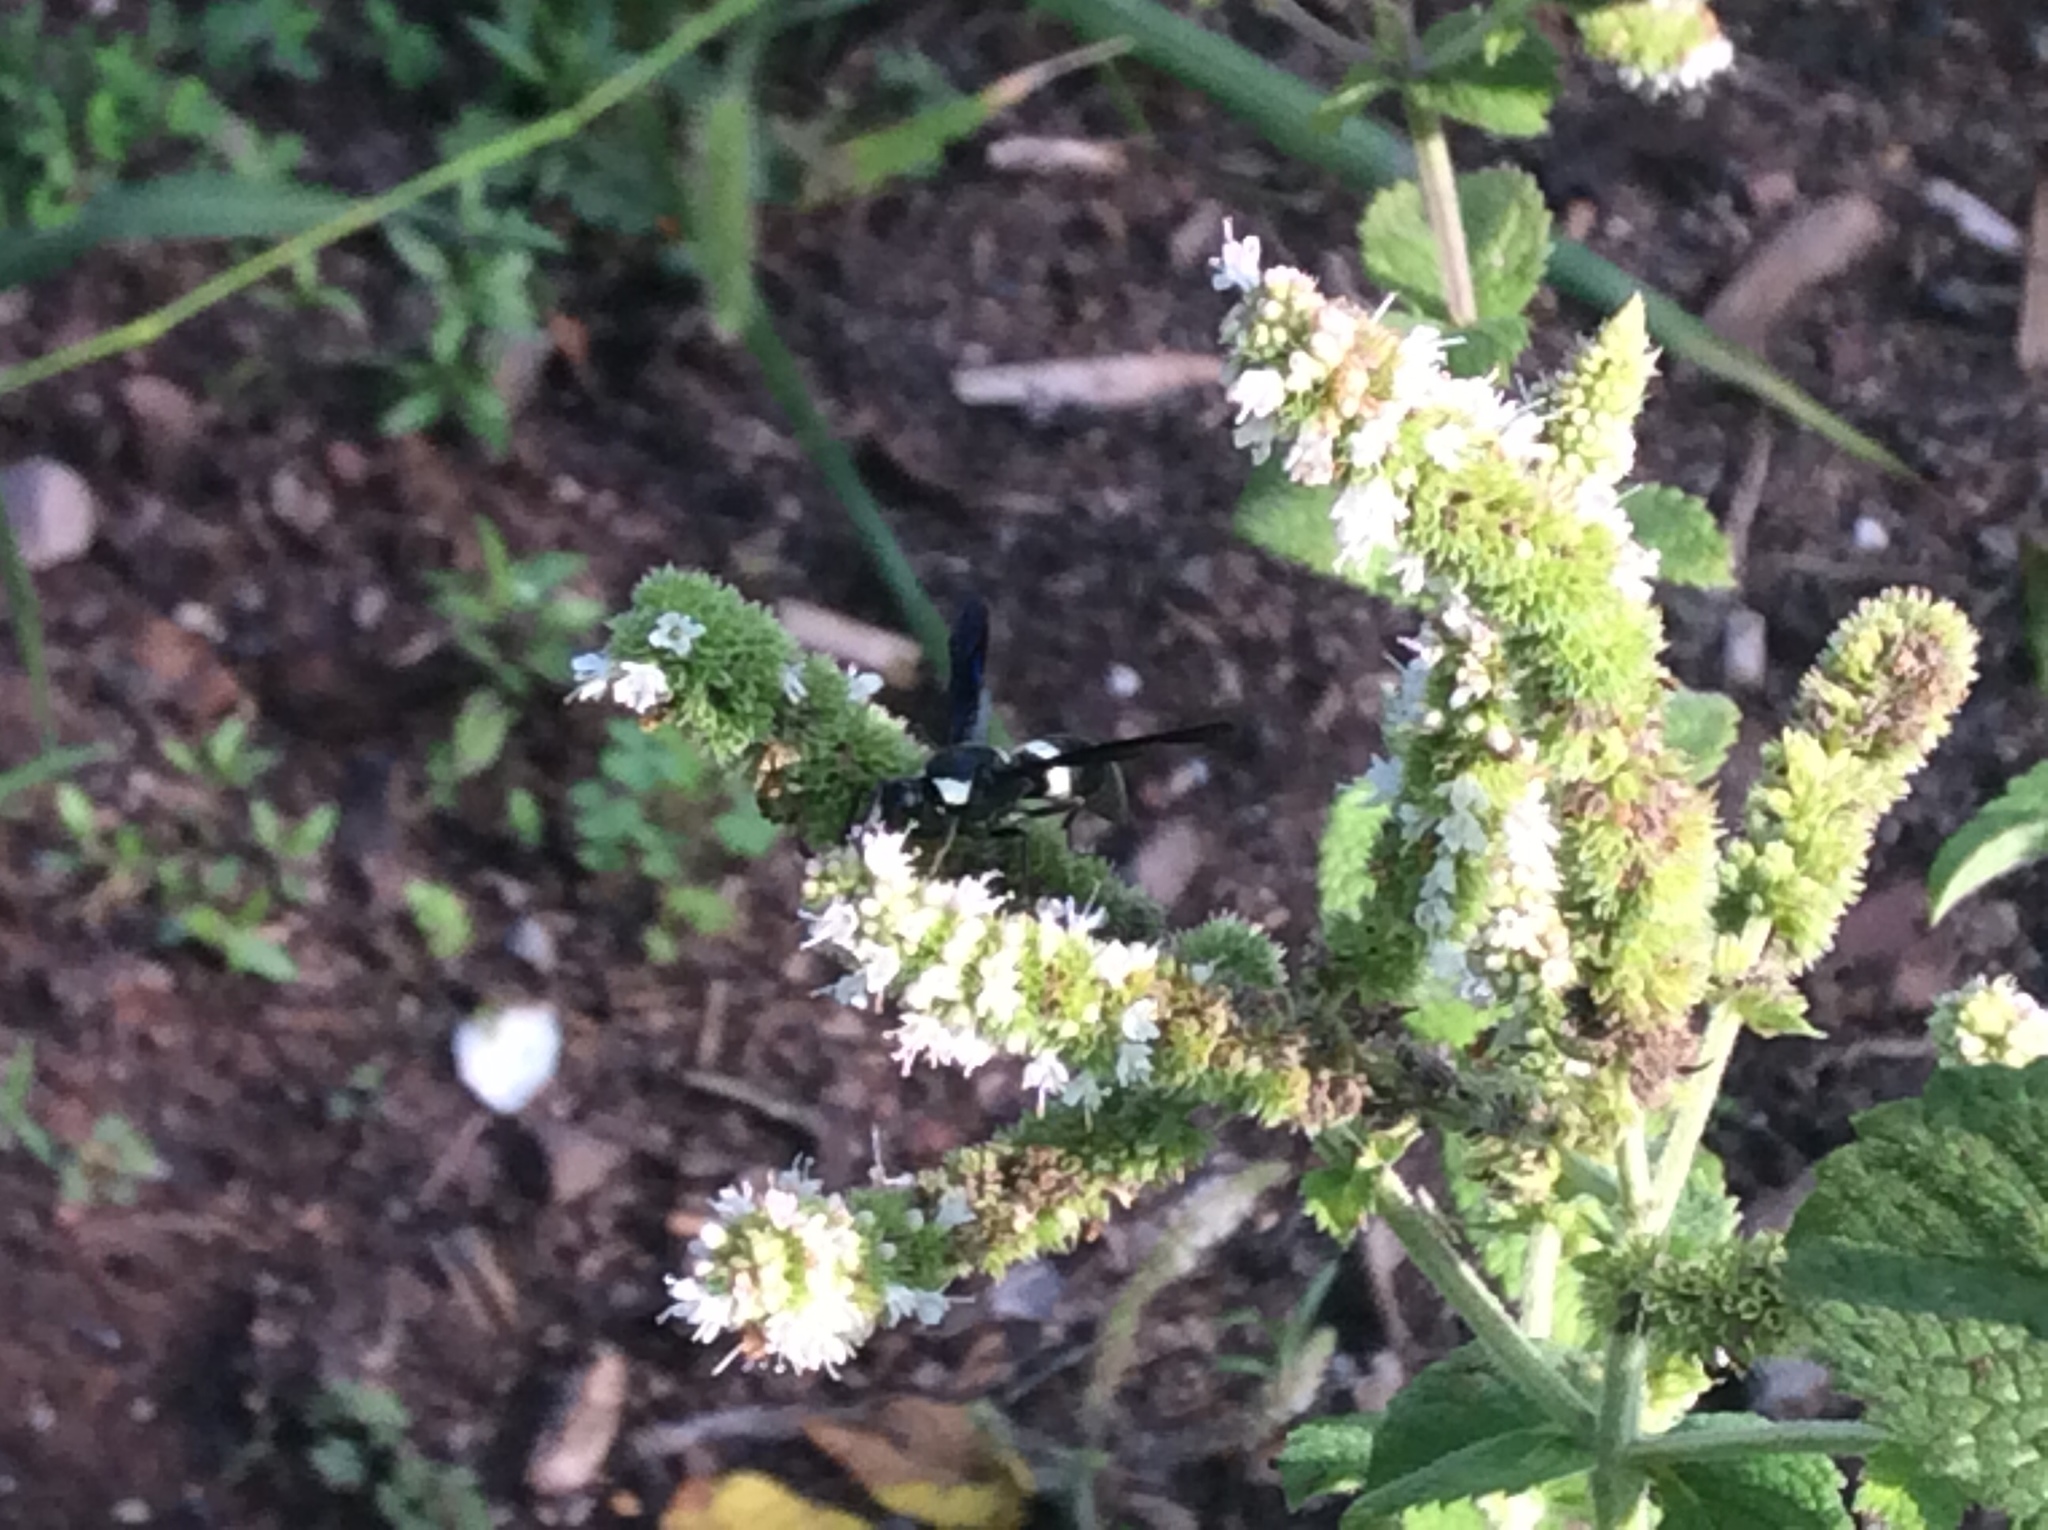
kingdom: Animalia
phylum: Arthropoda
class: Insecta
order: Hymenoptera
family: Eumenidae
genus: Monobia
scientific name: Monobia quadridens
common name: Four-toothed mason wasp
